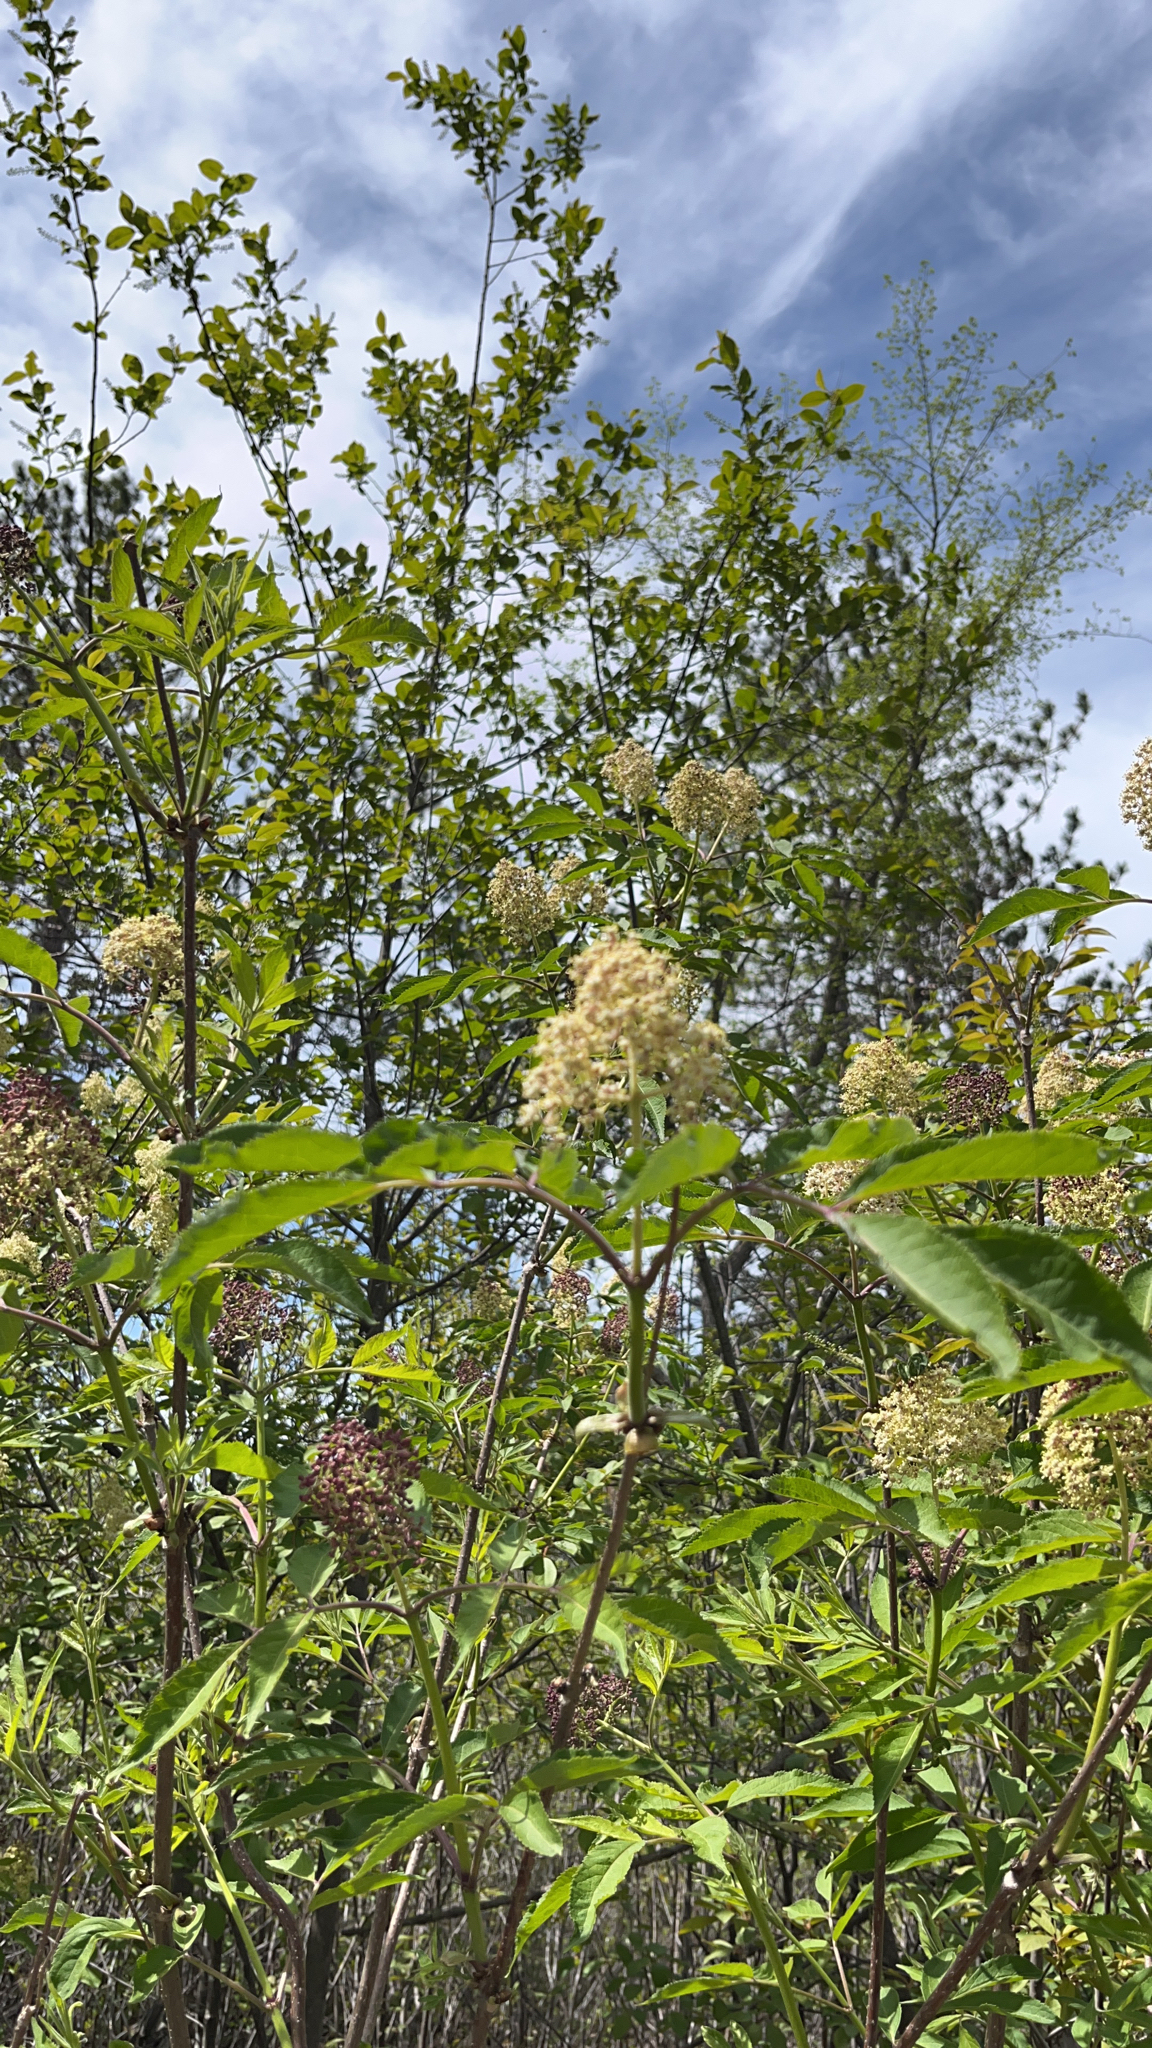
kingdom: Plantae
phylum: Tracheophyta
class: Magnoliopsida
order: Dipsacales
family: Viburnaceae
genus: Sambucus
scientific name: Sambucus racemosa
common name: Red-berried elder
